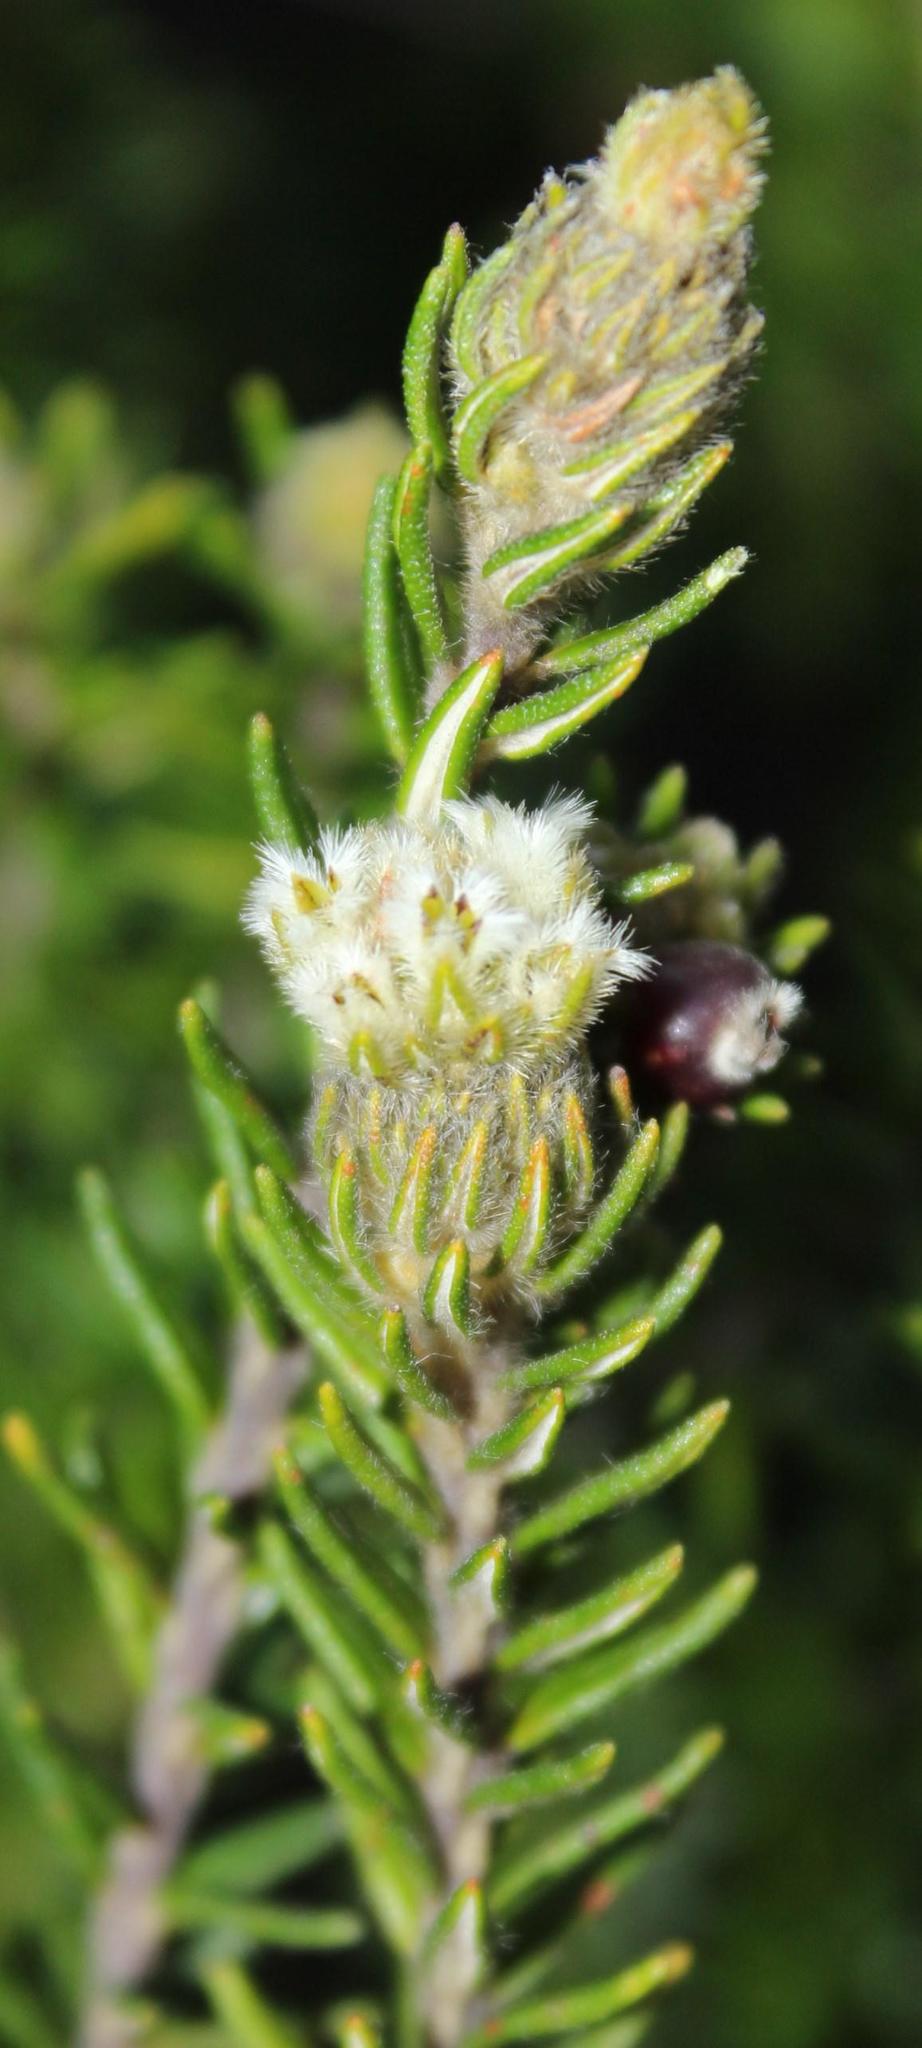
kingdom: Plantae
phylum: Tracheophyta
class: Magnoliopsida
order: Rosales
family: Rhamnaceae
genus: Phylica
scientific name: Phylica imberbis
